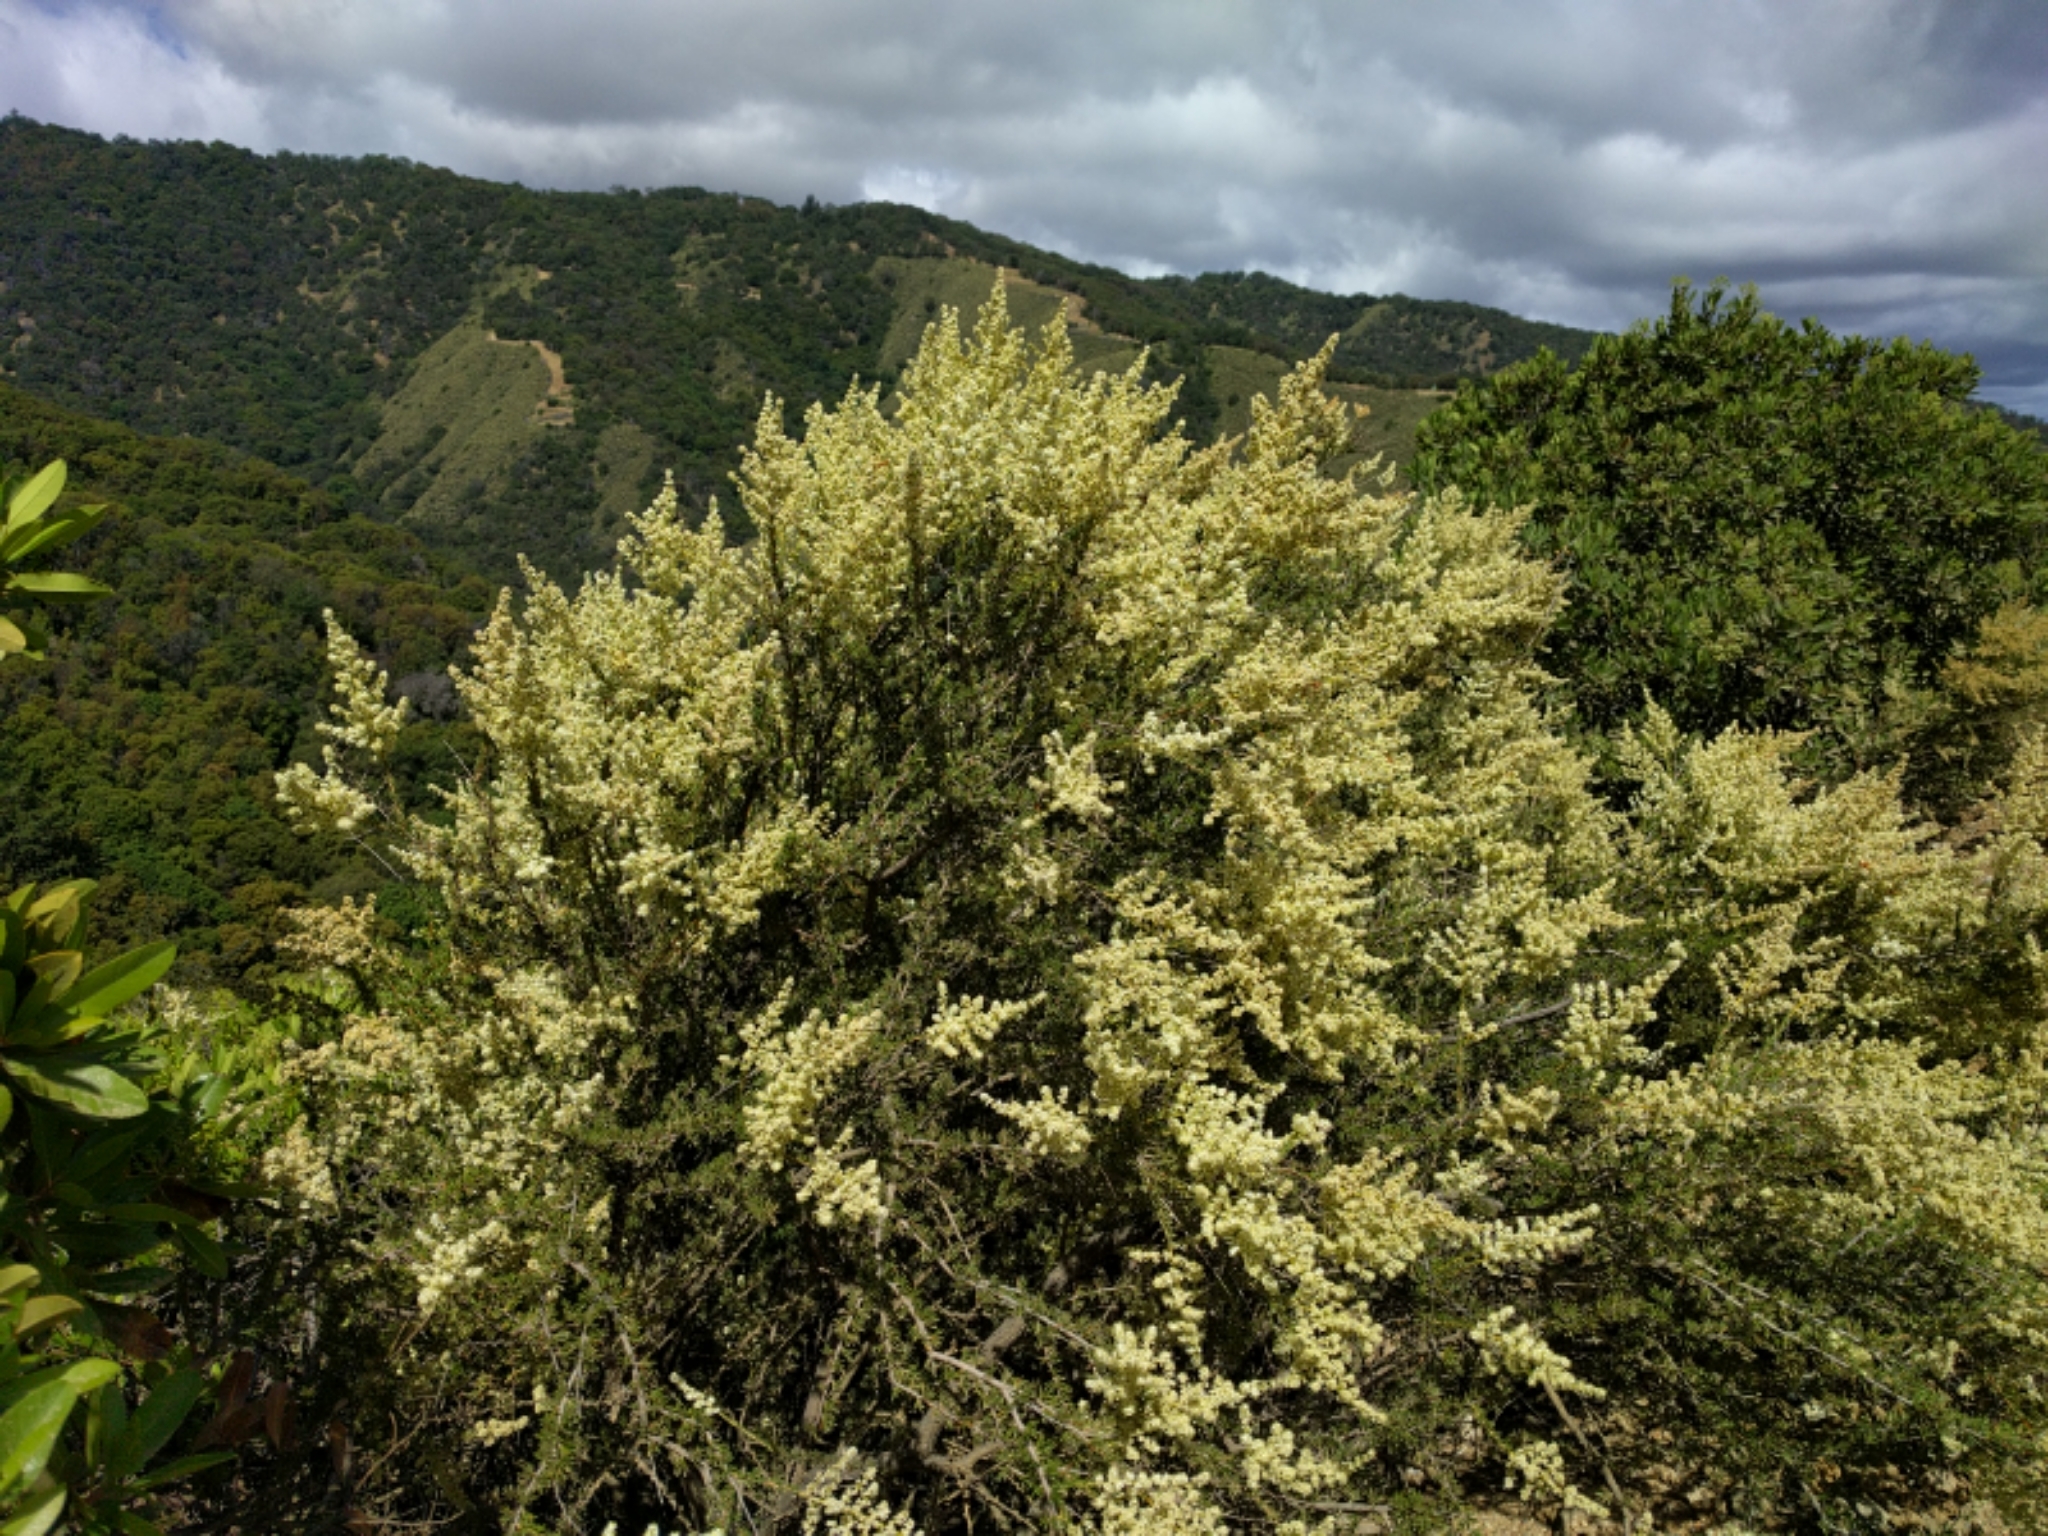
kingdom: Plantae
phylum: Tracheophyta
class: Magnoliopsida
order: Rosales
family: Rosaceae
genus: Adenostoma
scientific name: Adenostoma fasciculatum
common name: Chamise
